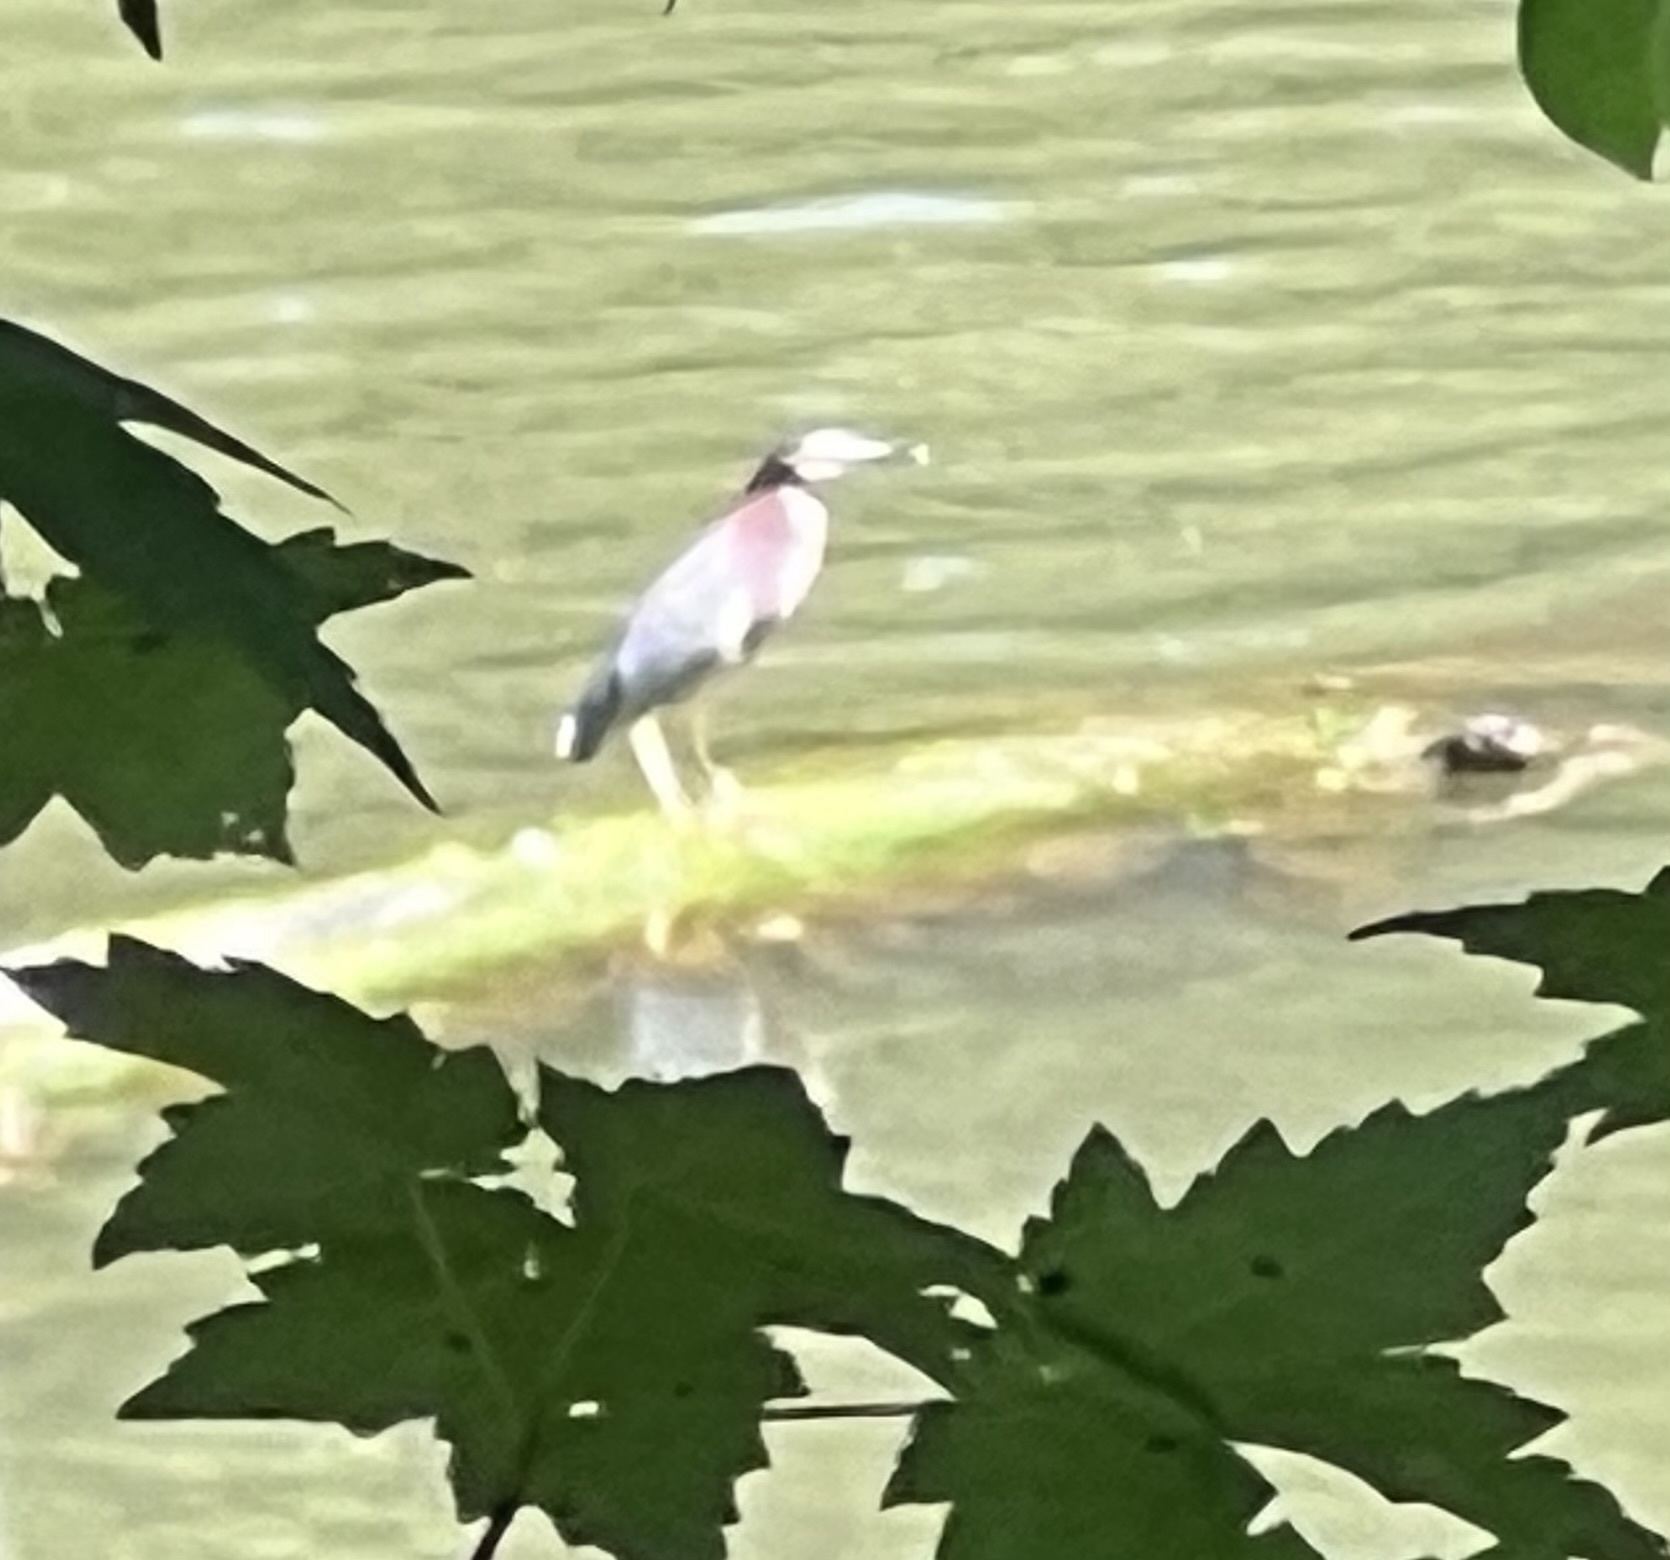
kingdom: Animalia
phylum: Chordata
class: Aves
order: Pelecaniformes
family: Ardeidae
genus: Butorides
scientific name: Butorides virescens
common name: Green heron
